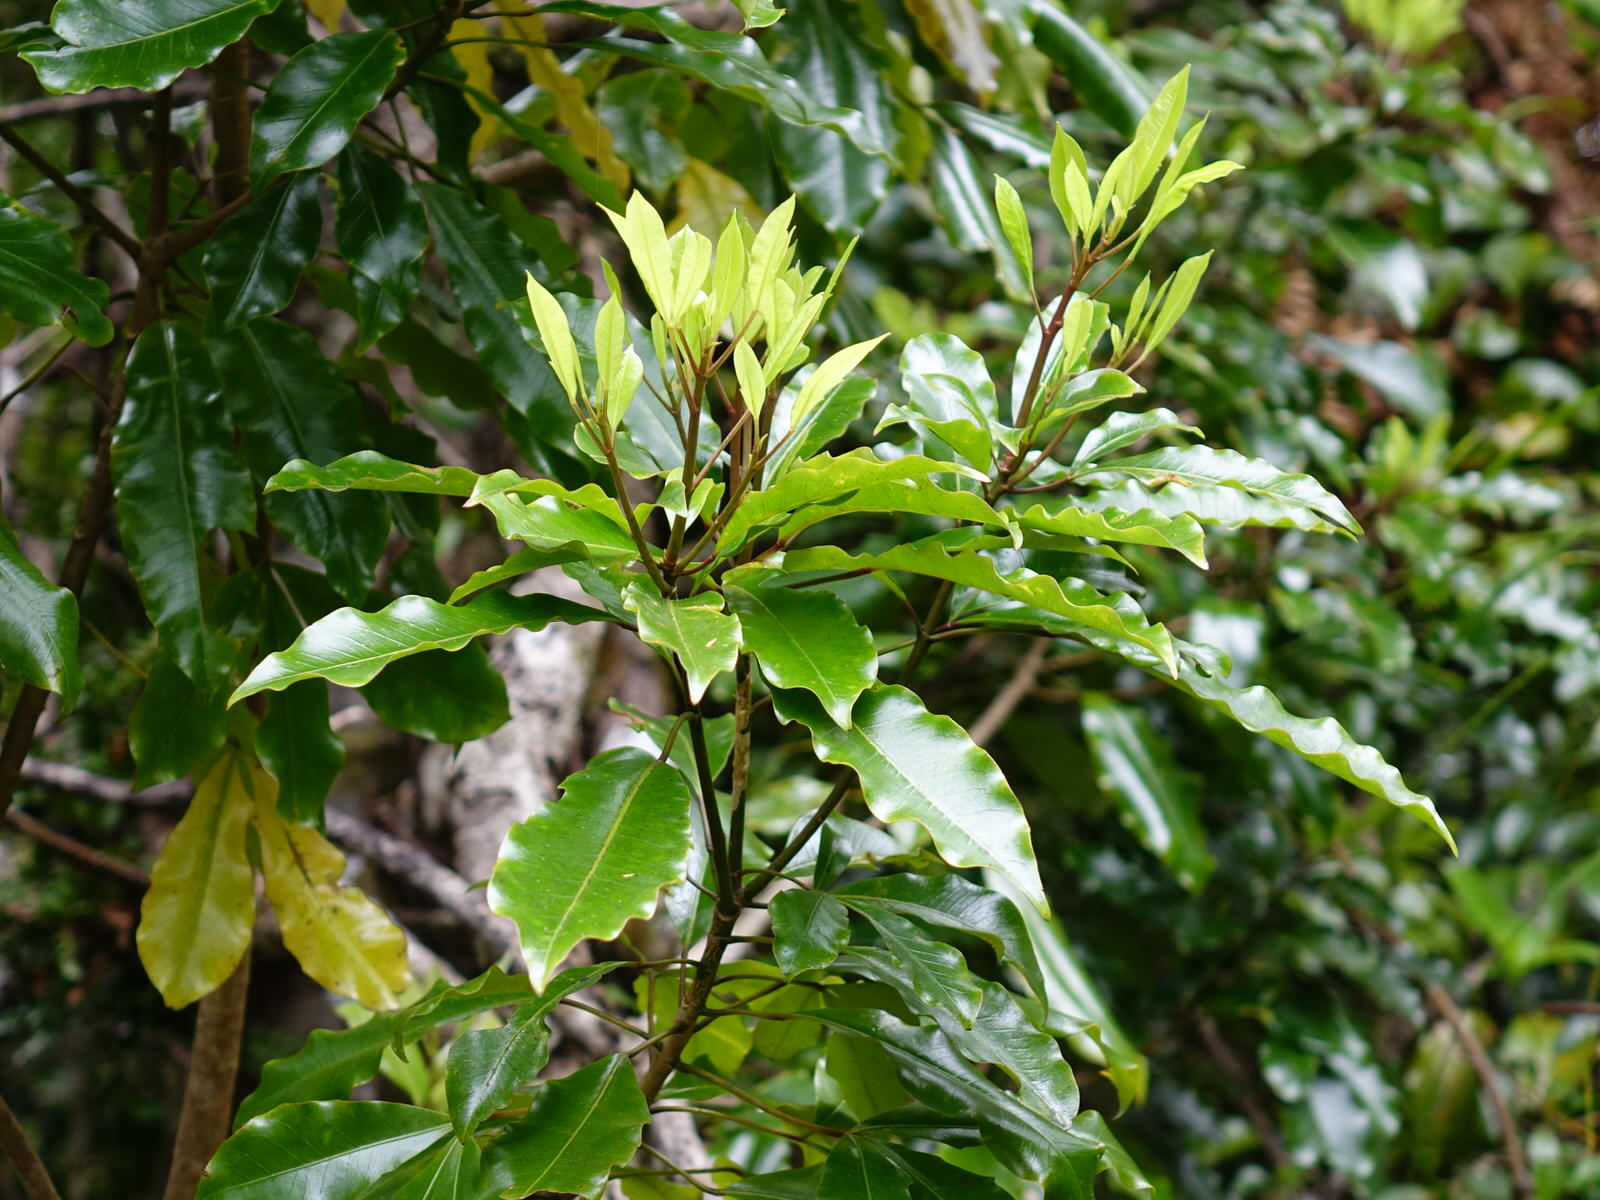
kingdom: Plantae
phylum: Tracheophyta
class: Magnoliopsida
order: Apiales
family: Araliaceae
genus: Raukaua
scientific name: Raukaua edgerleyi
